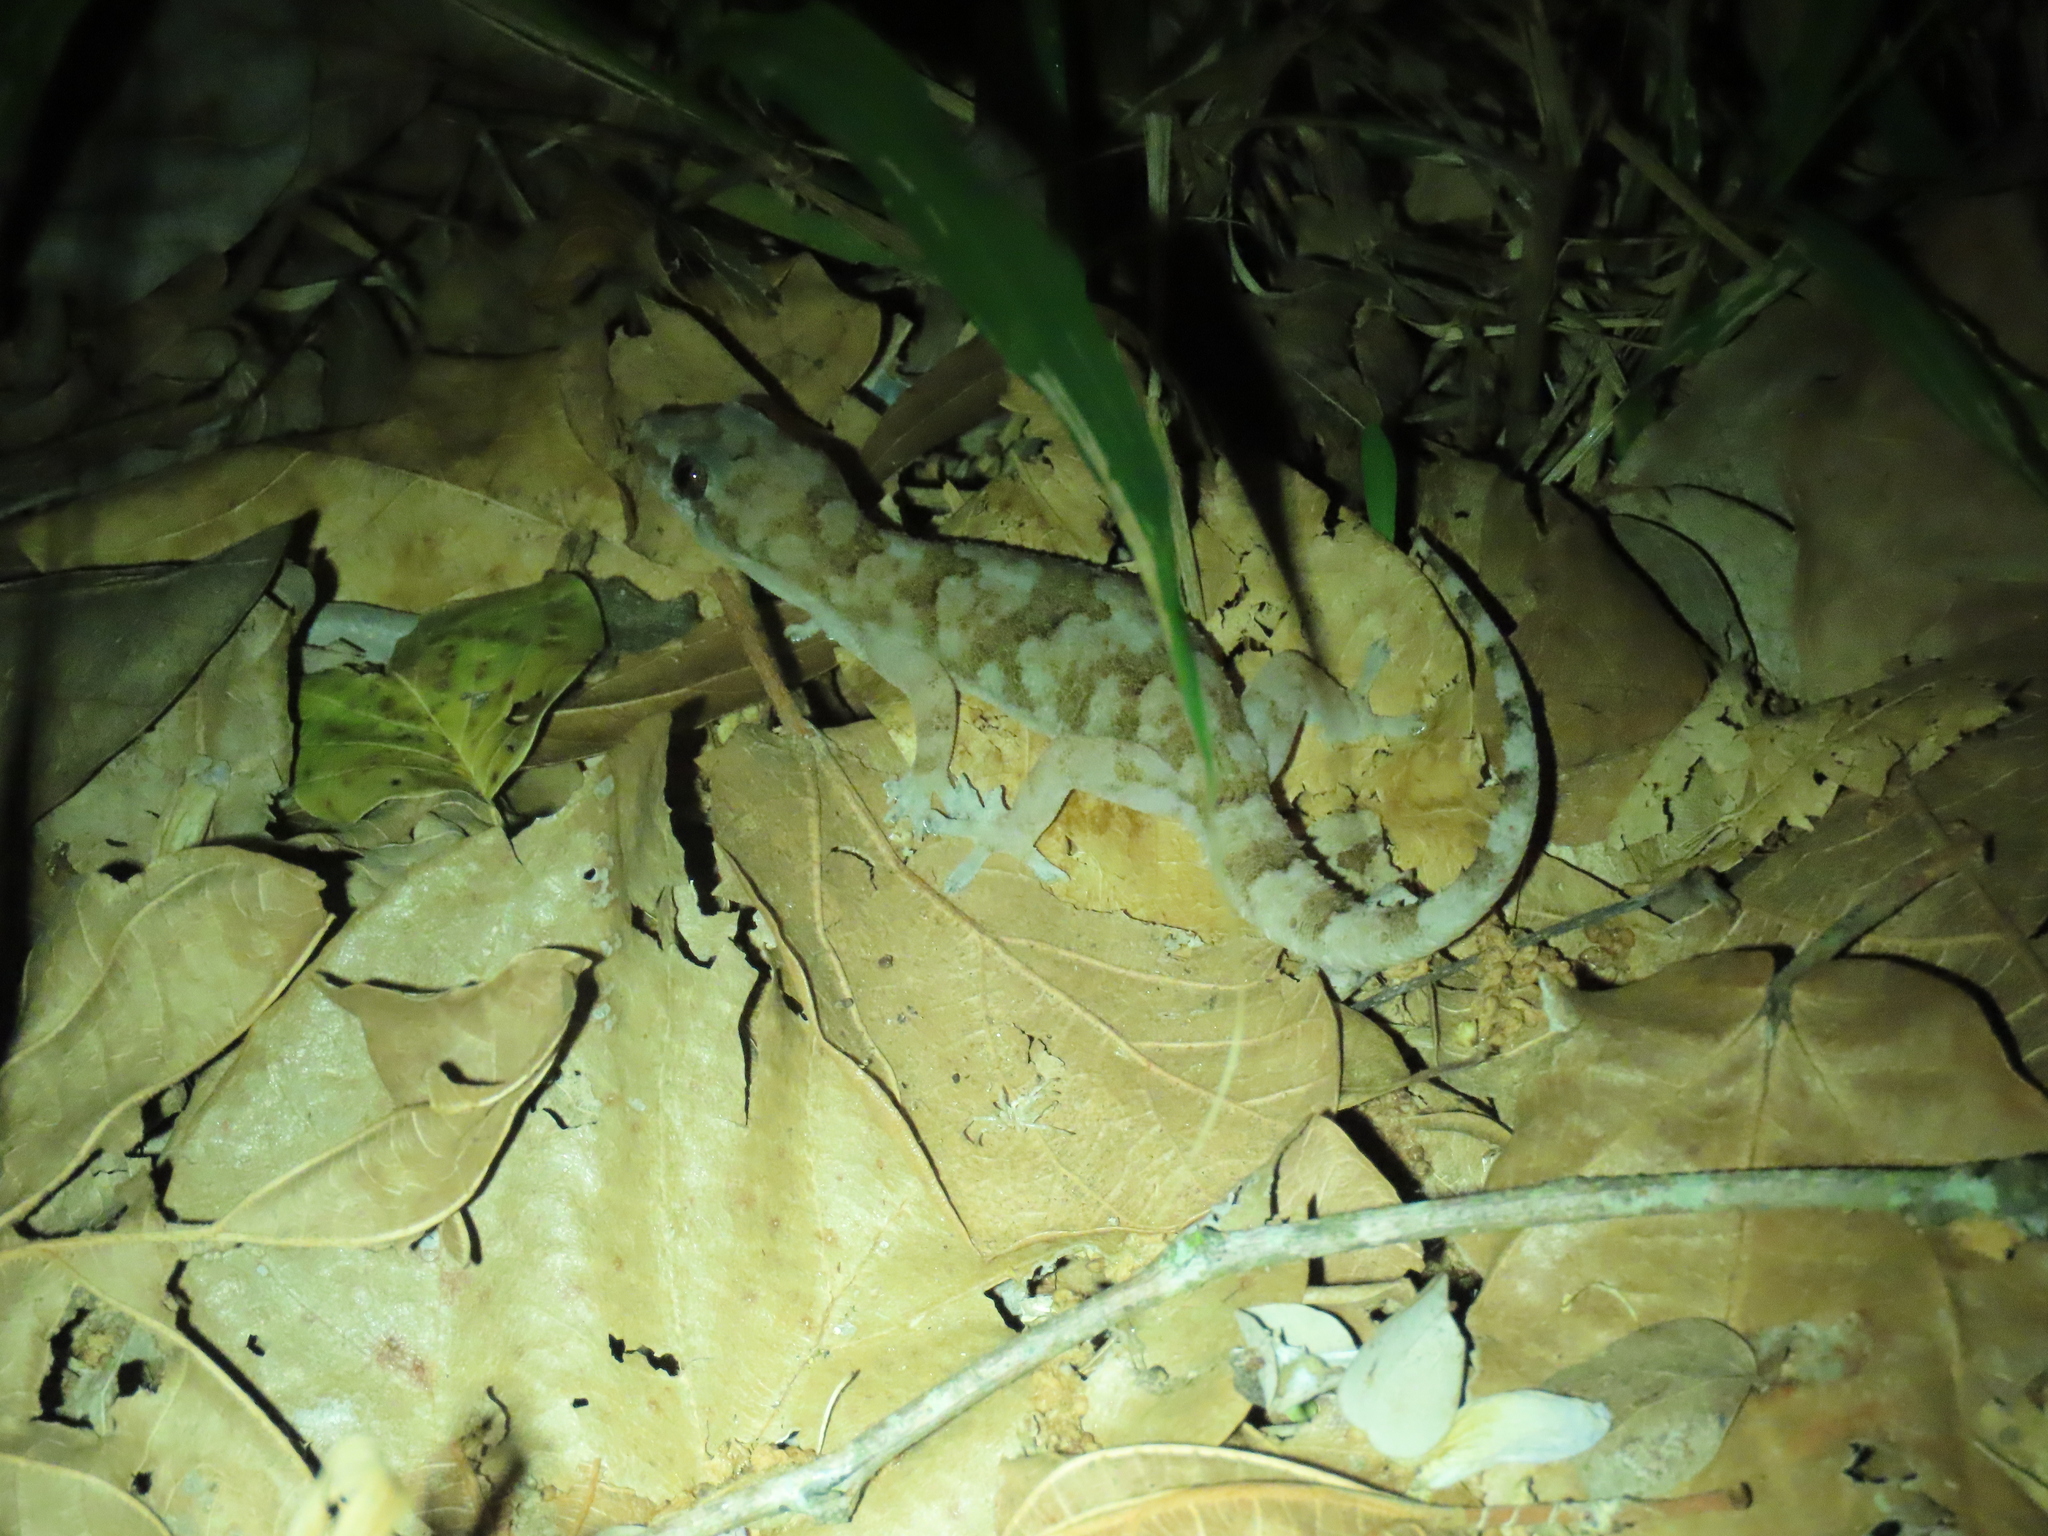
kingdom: Animalia
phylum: Chordata
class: Squamata
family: Gekkonidae
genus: Hemidactylus
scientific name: Hemidactylus mabouia
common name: House gecko
